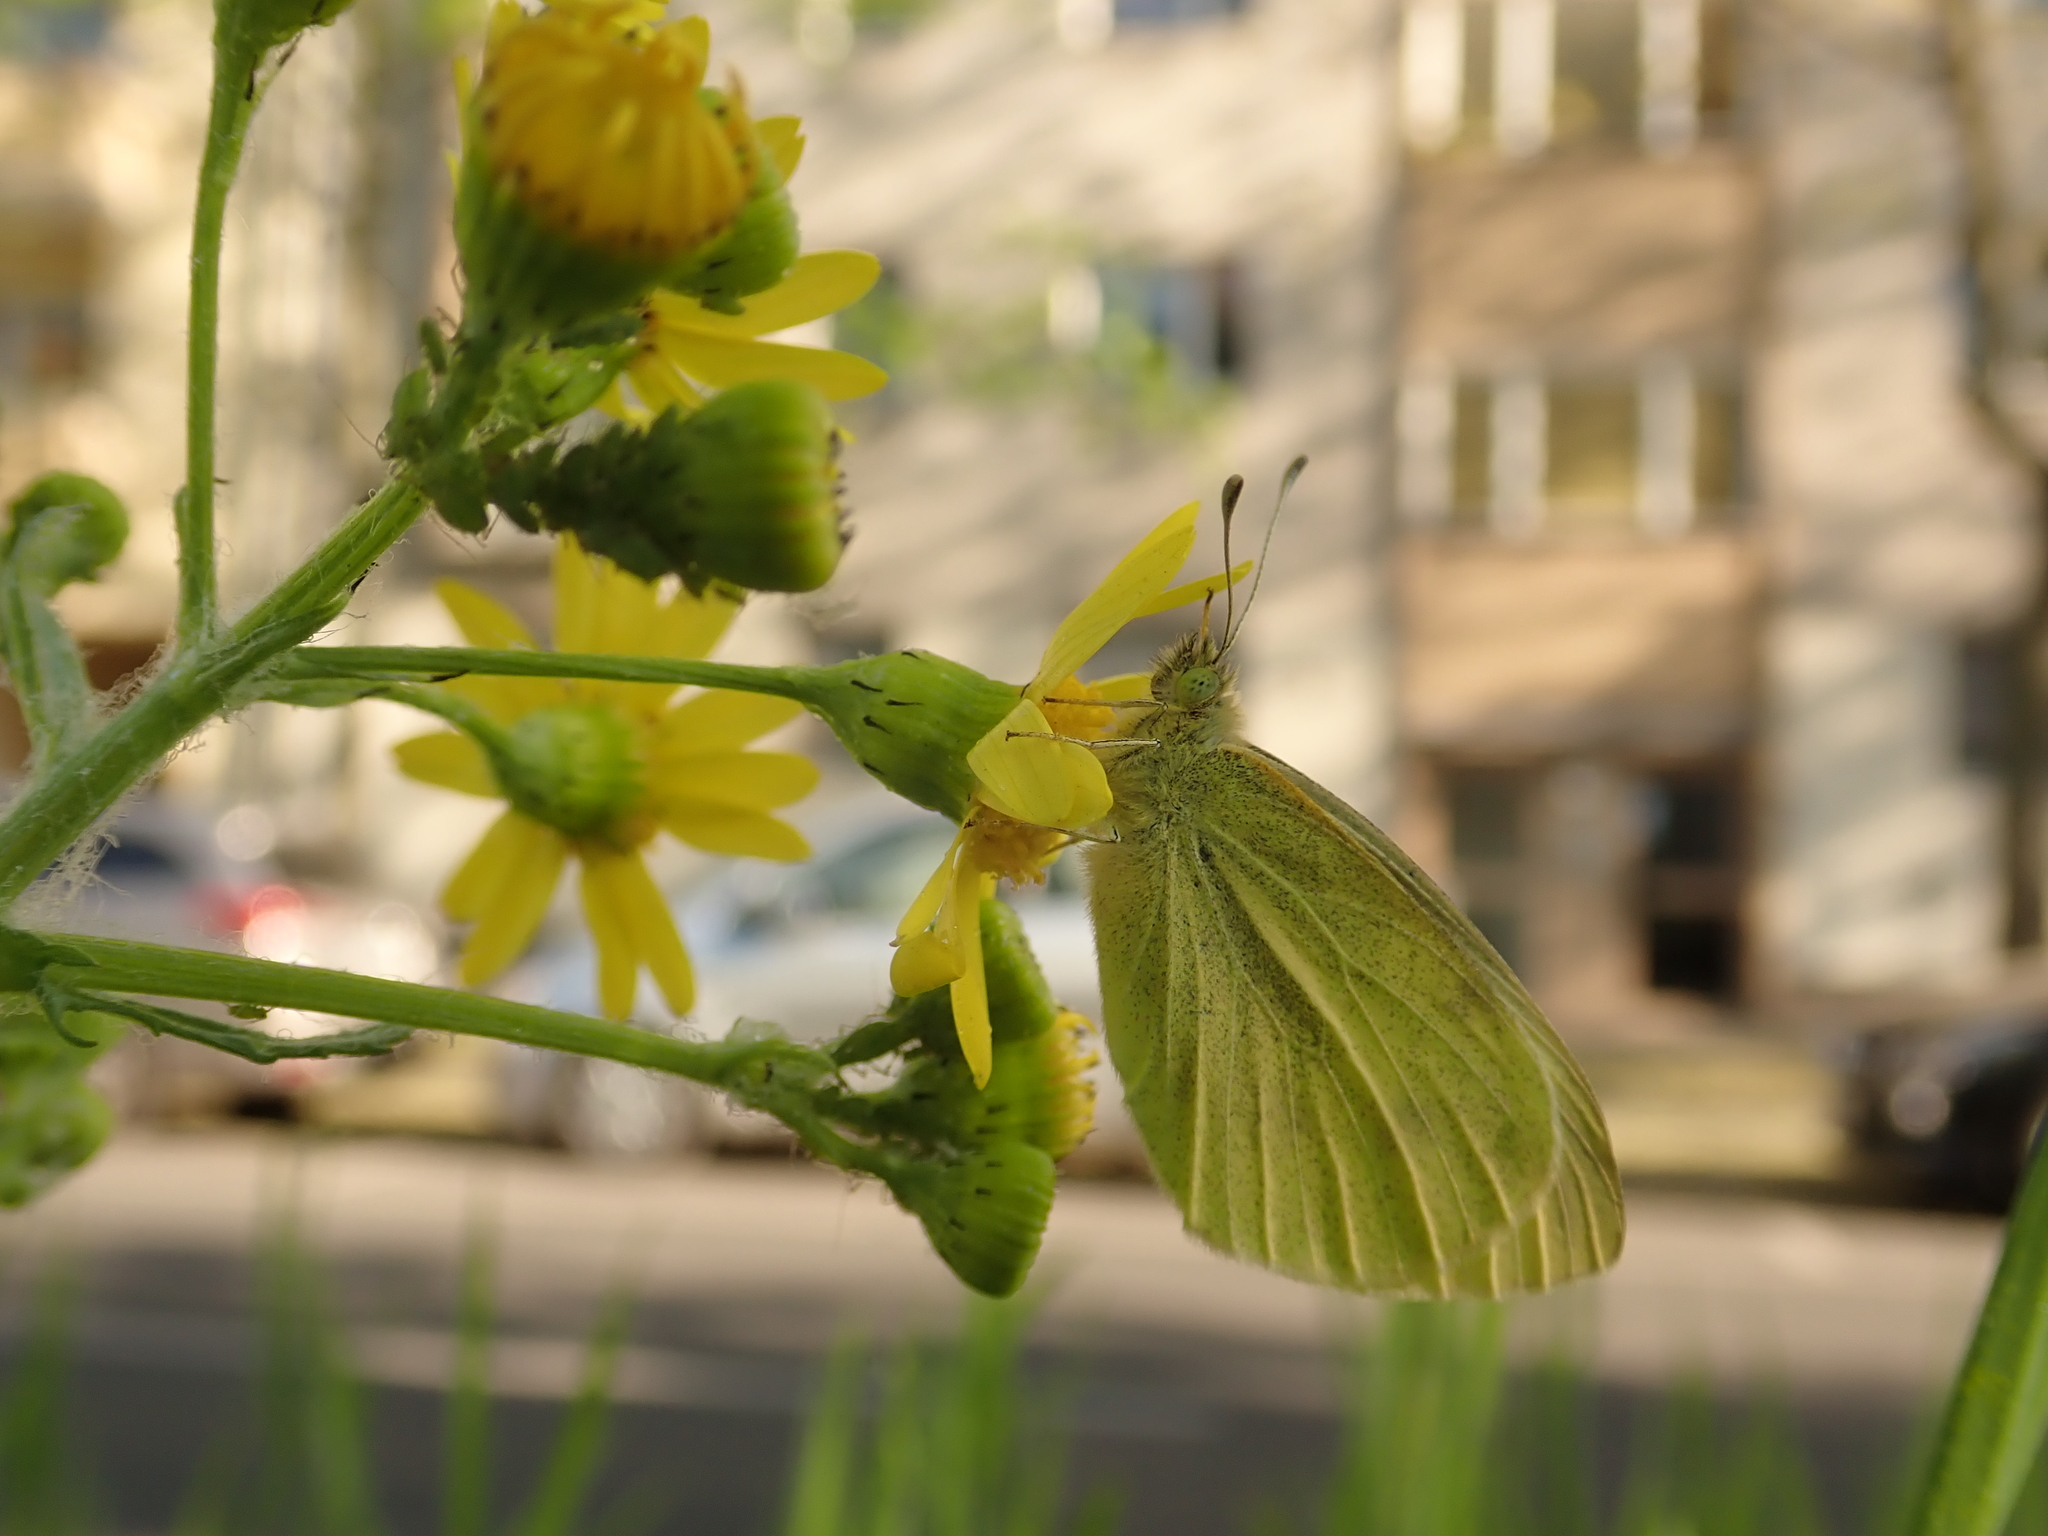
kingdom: Animalia
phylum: Arthropoda
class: Insecta
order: Lepidoptera
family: Pieridae
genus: Pieris
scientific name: Pieris rapae
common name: Small white
